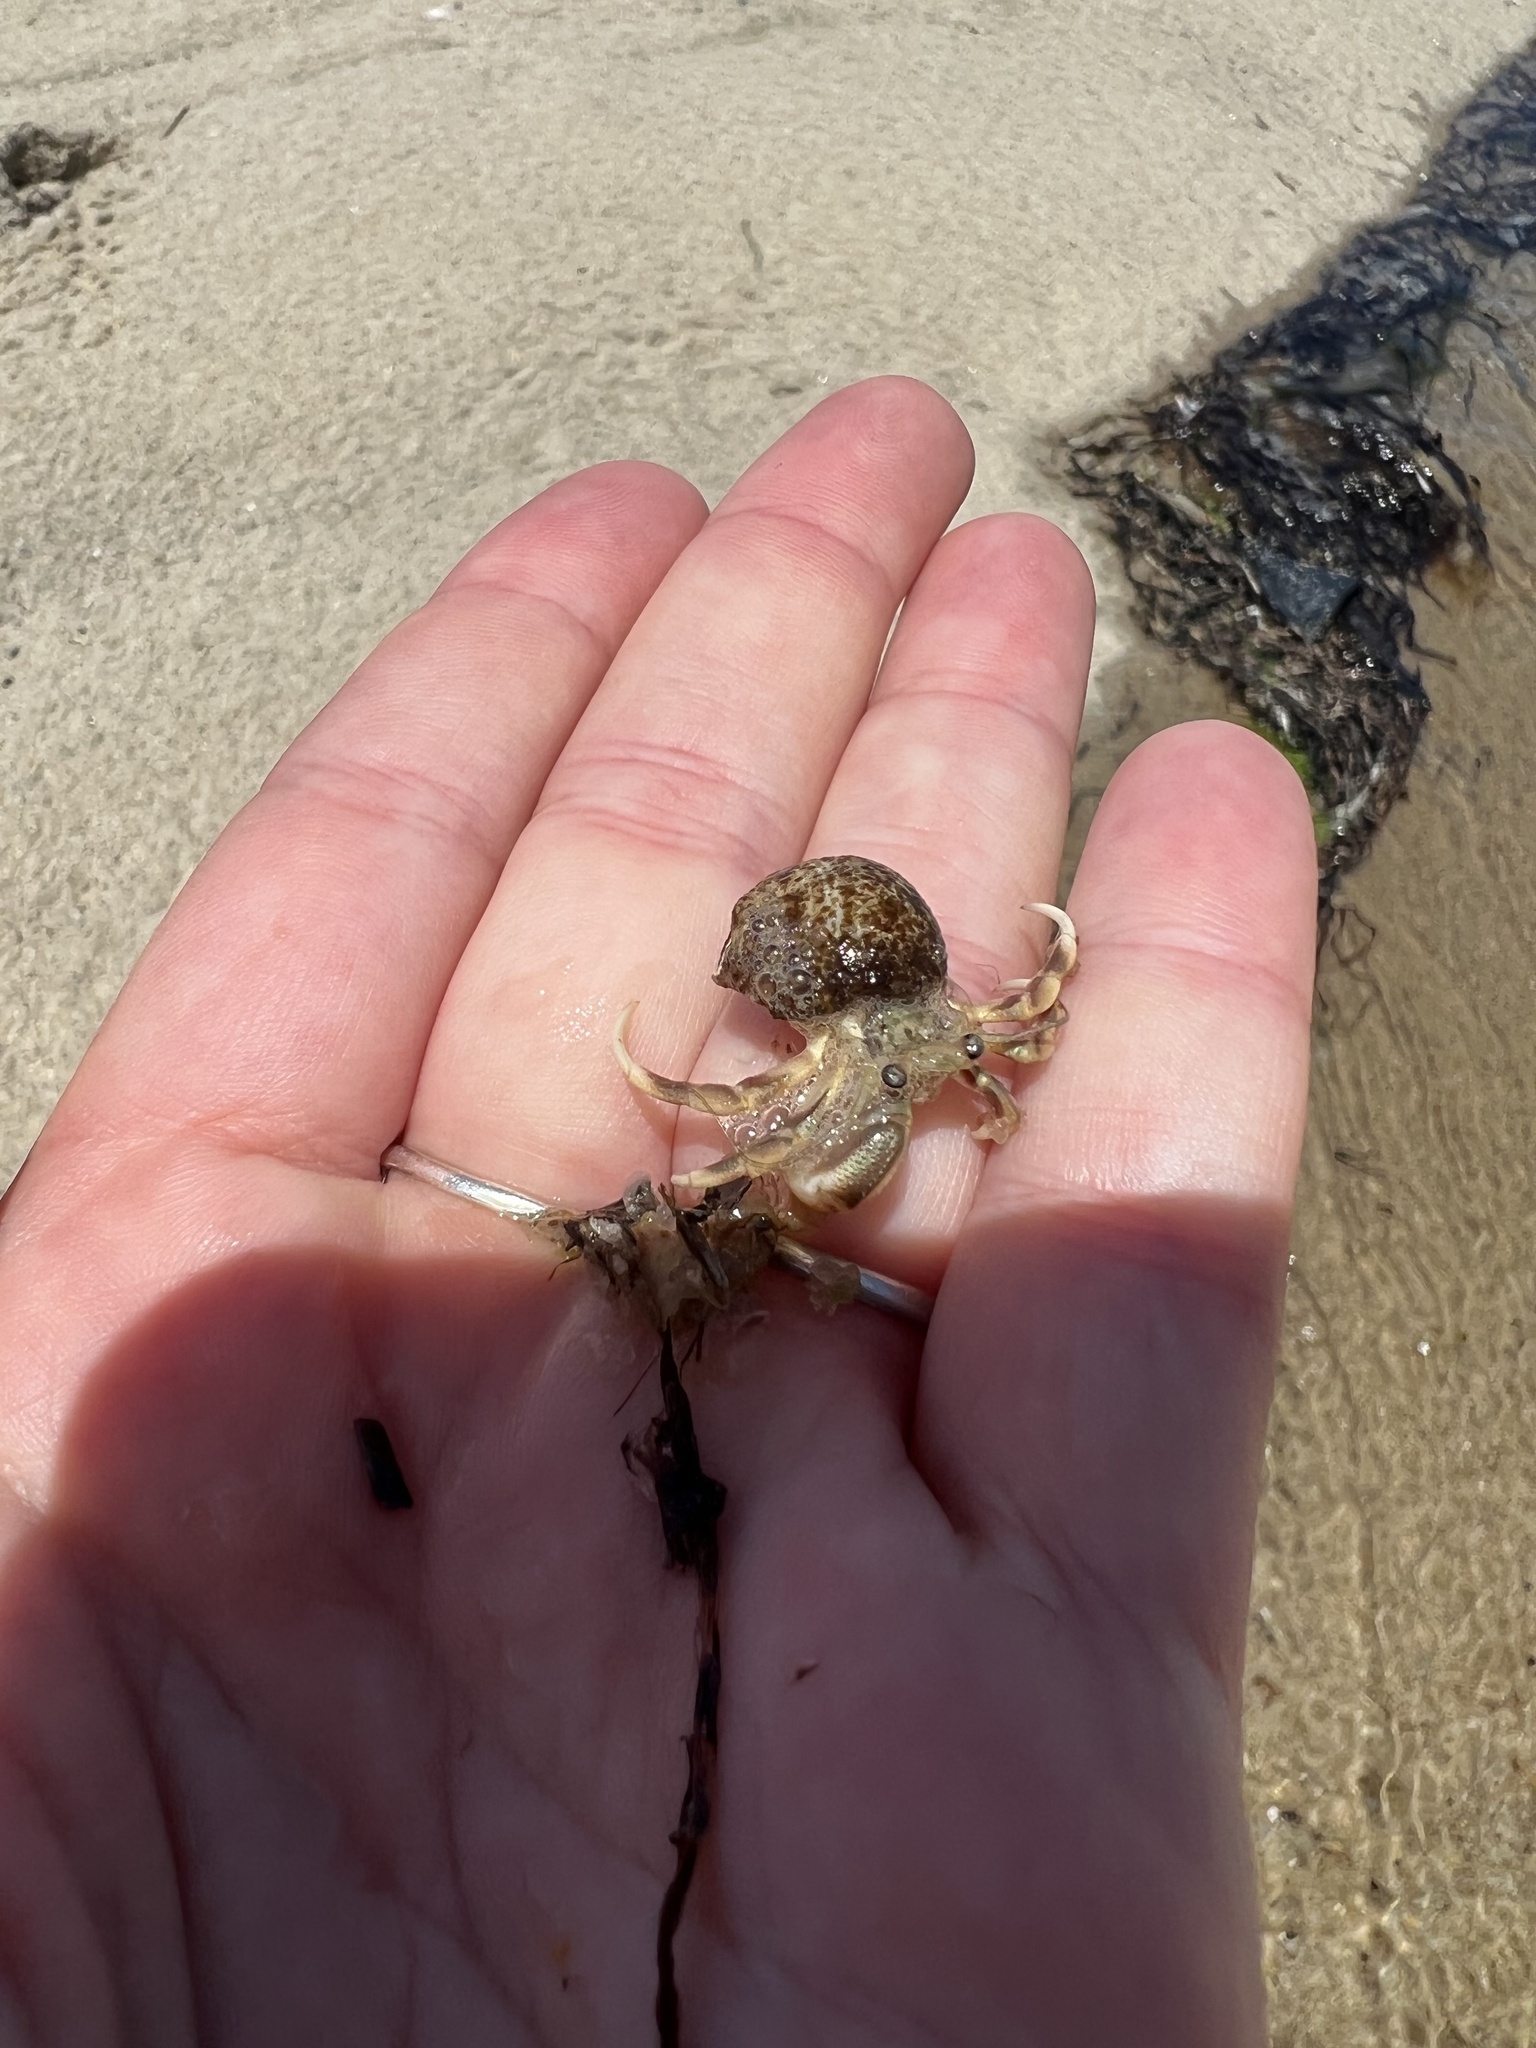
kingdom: Animalia
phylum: Arthropoda
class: Malacostraca
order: Decapoda
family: Paguridae
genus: Pagurus
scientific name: Pagurus longicarpus
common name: Long-armed hermit crab
